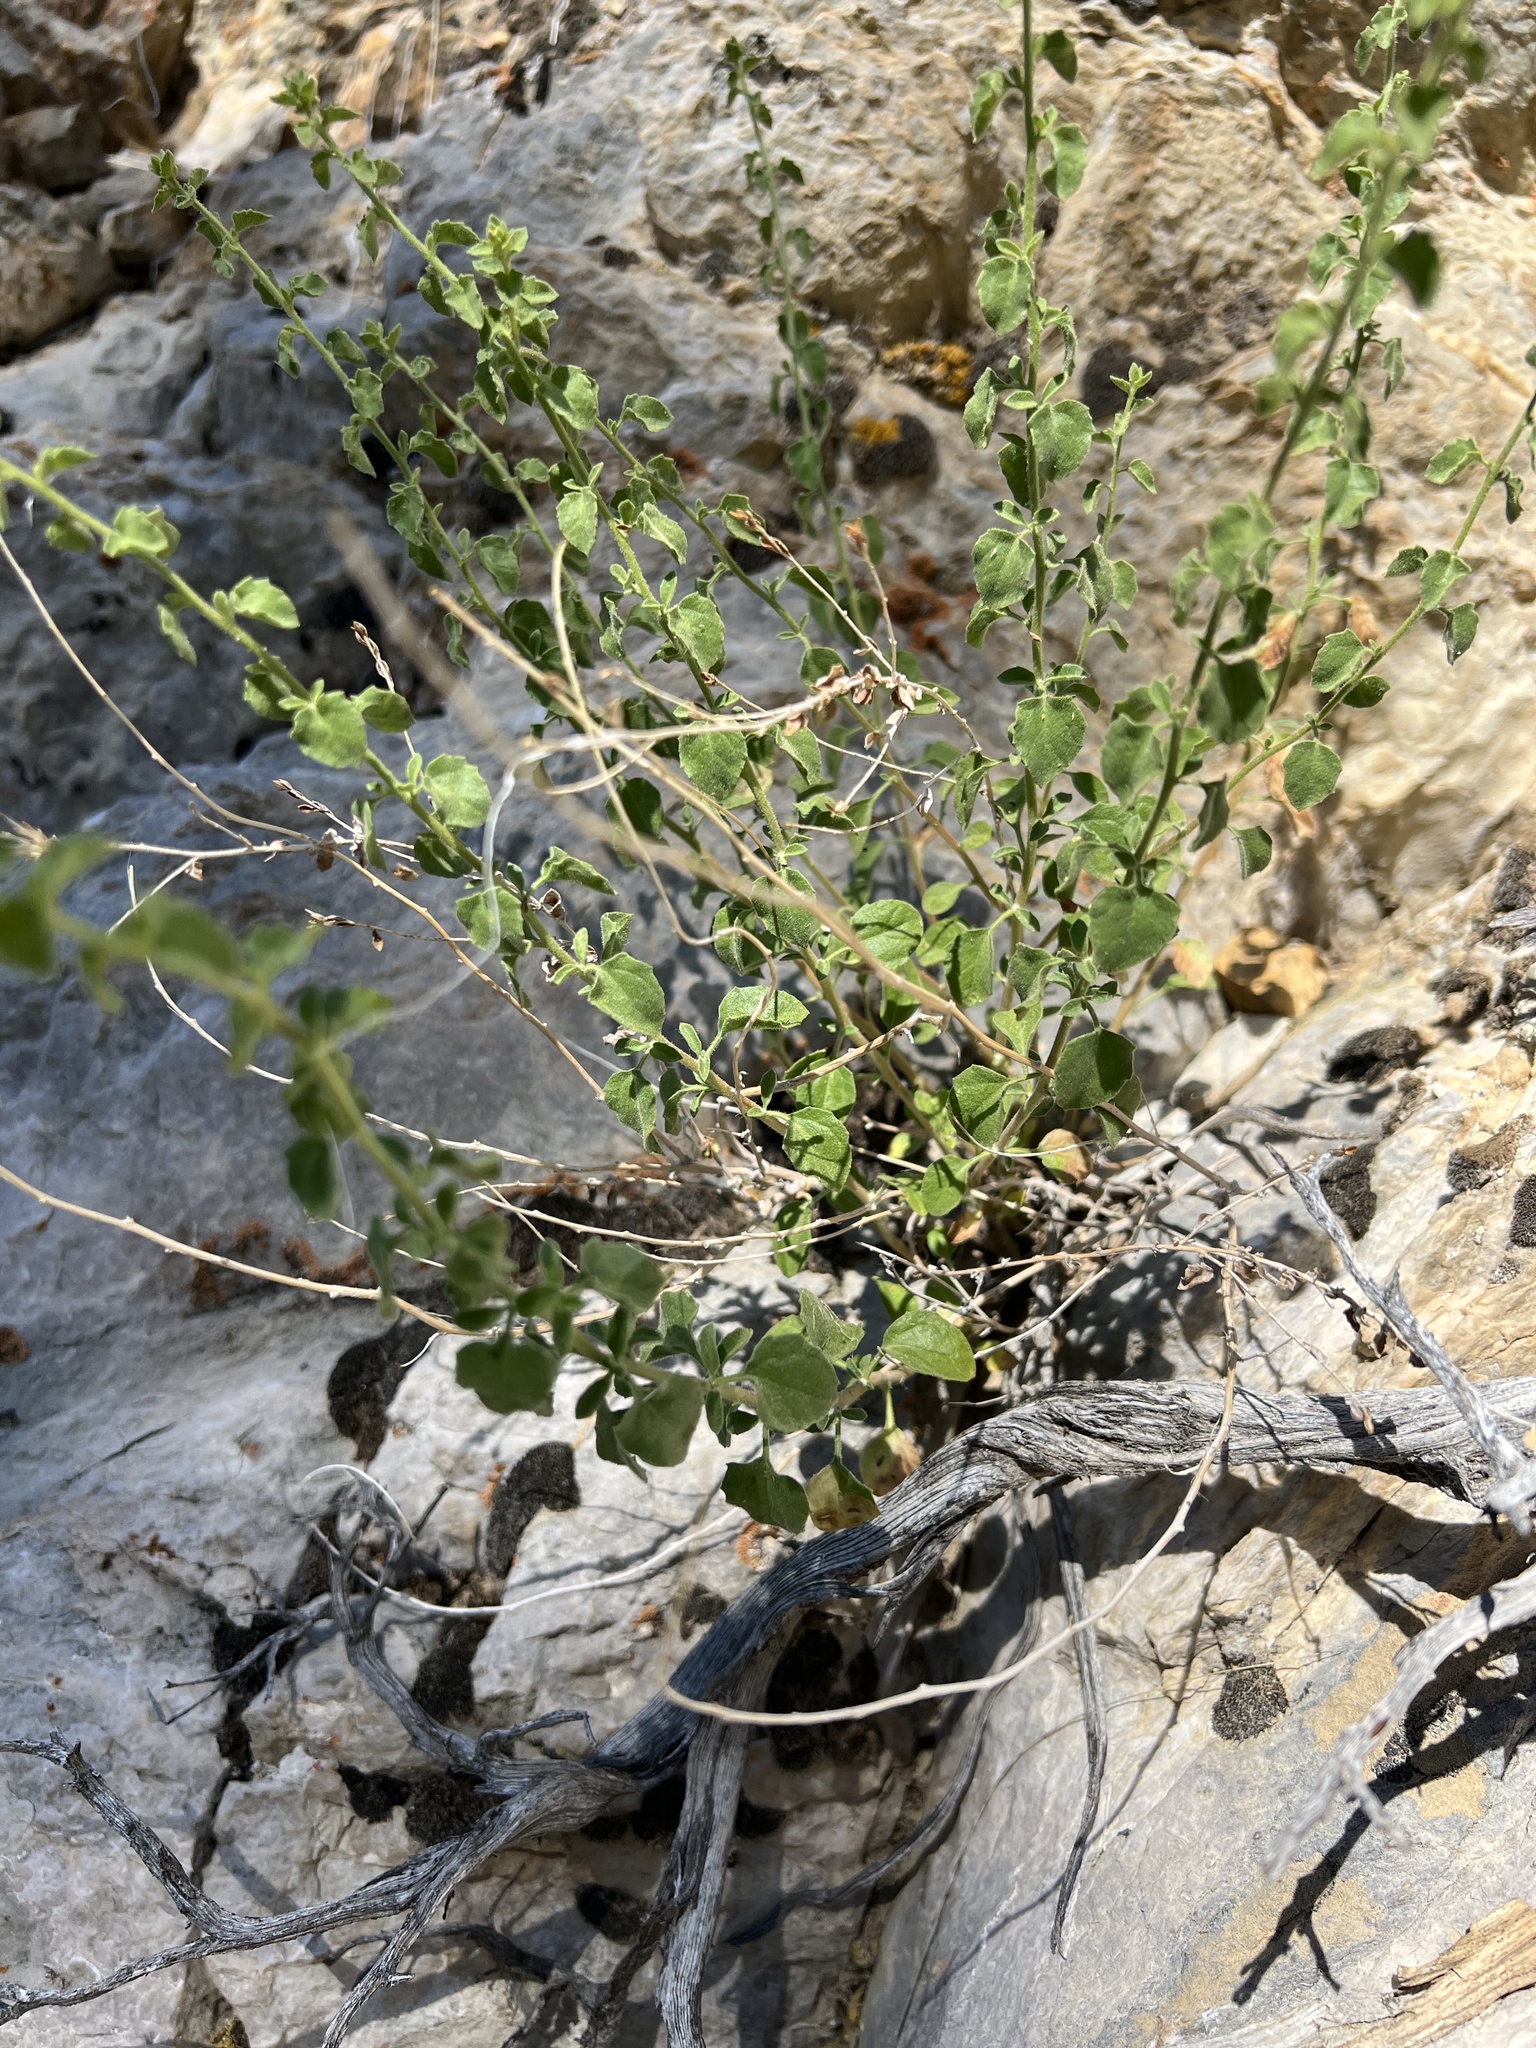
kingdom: Plantae
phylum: Tracheophyta
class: Magnoliopsida
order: Asterales
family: Asteraceae
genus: Brickellia
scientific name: Brickellia microphylla
